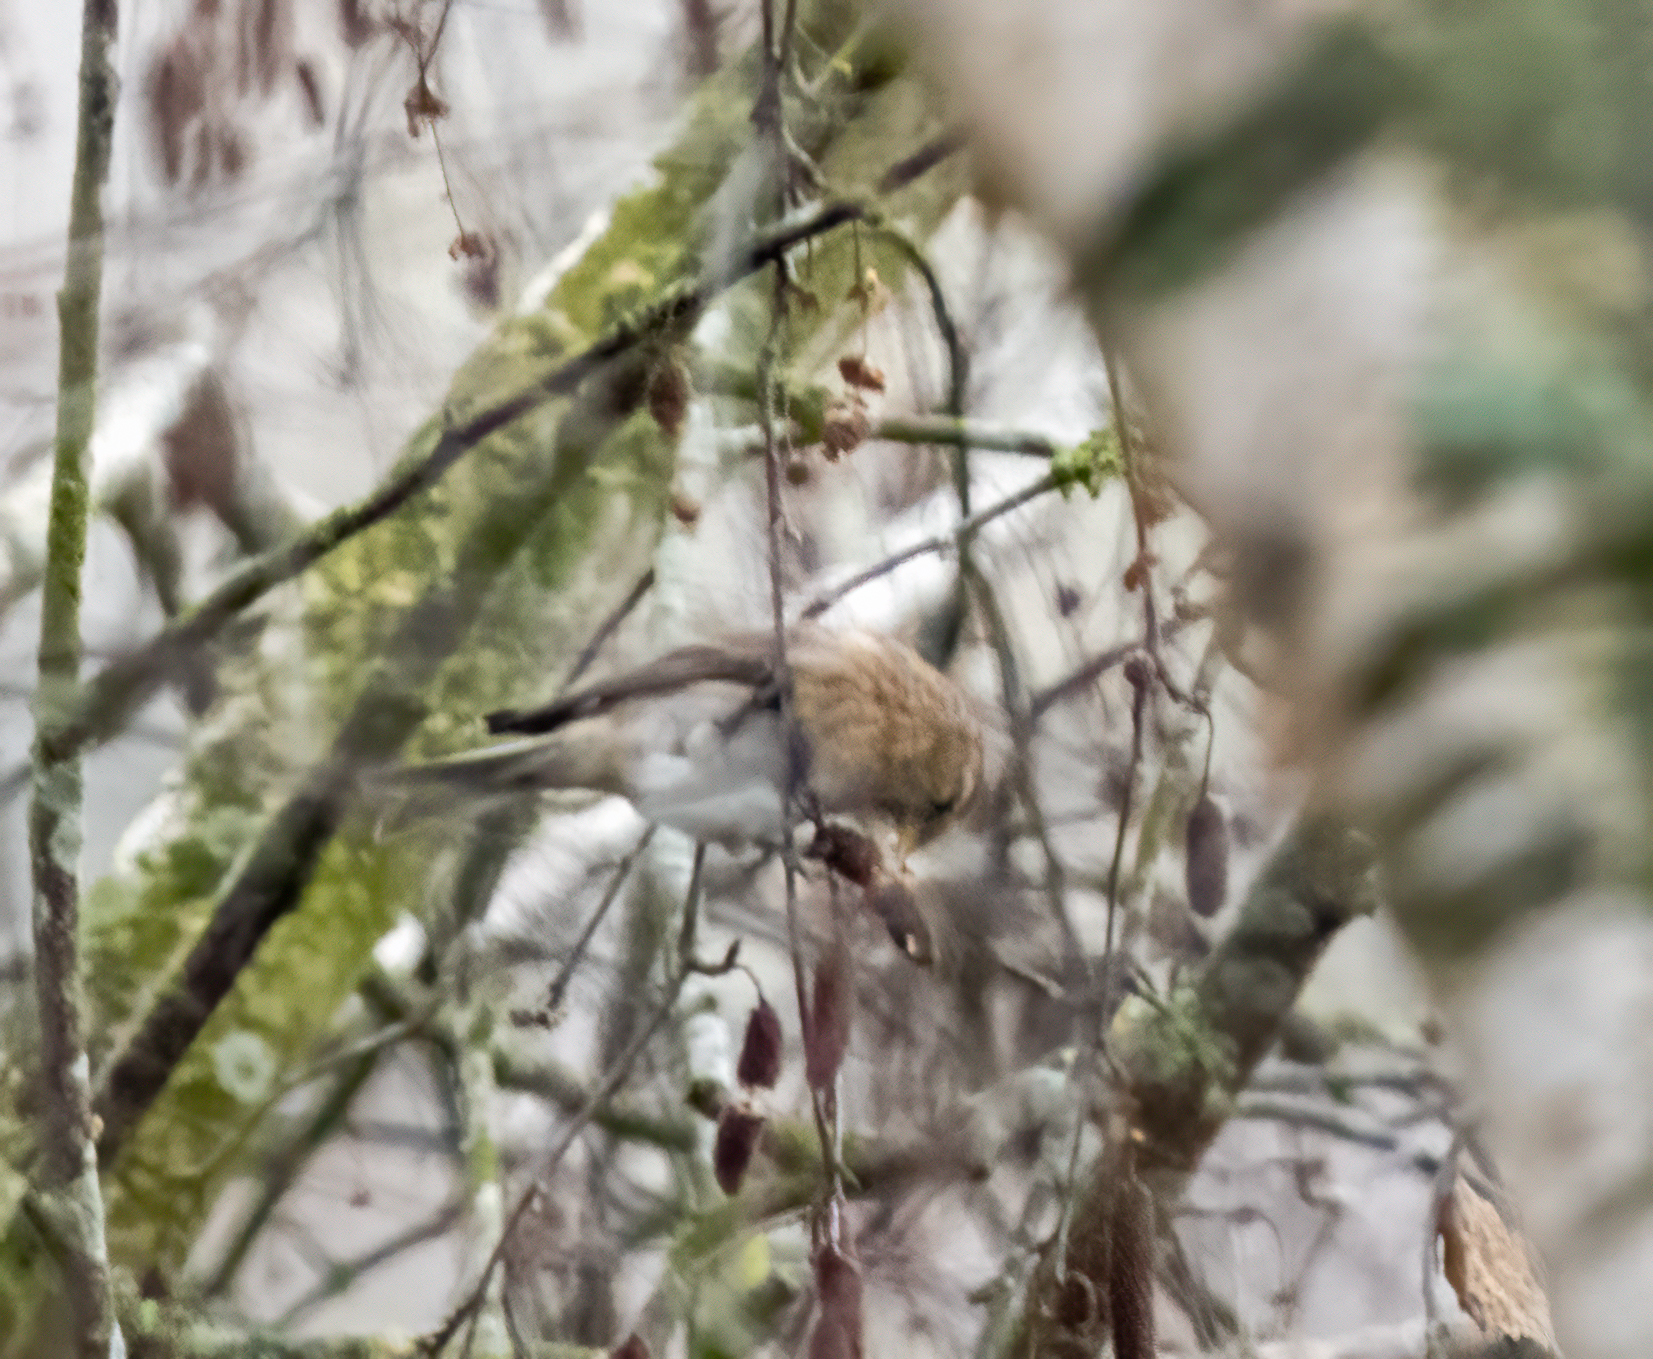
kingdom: Animalia
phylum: Chordata
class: Aves
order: Passeriformes
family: Fringillidae
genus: Acanthis
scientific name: Acanthis flammea
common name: Common redpoll
